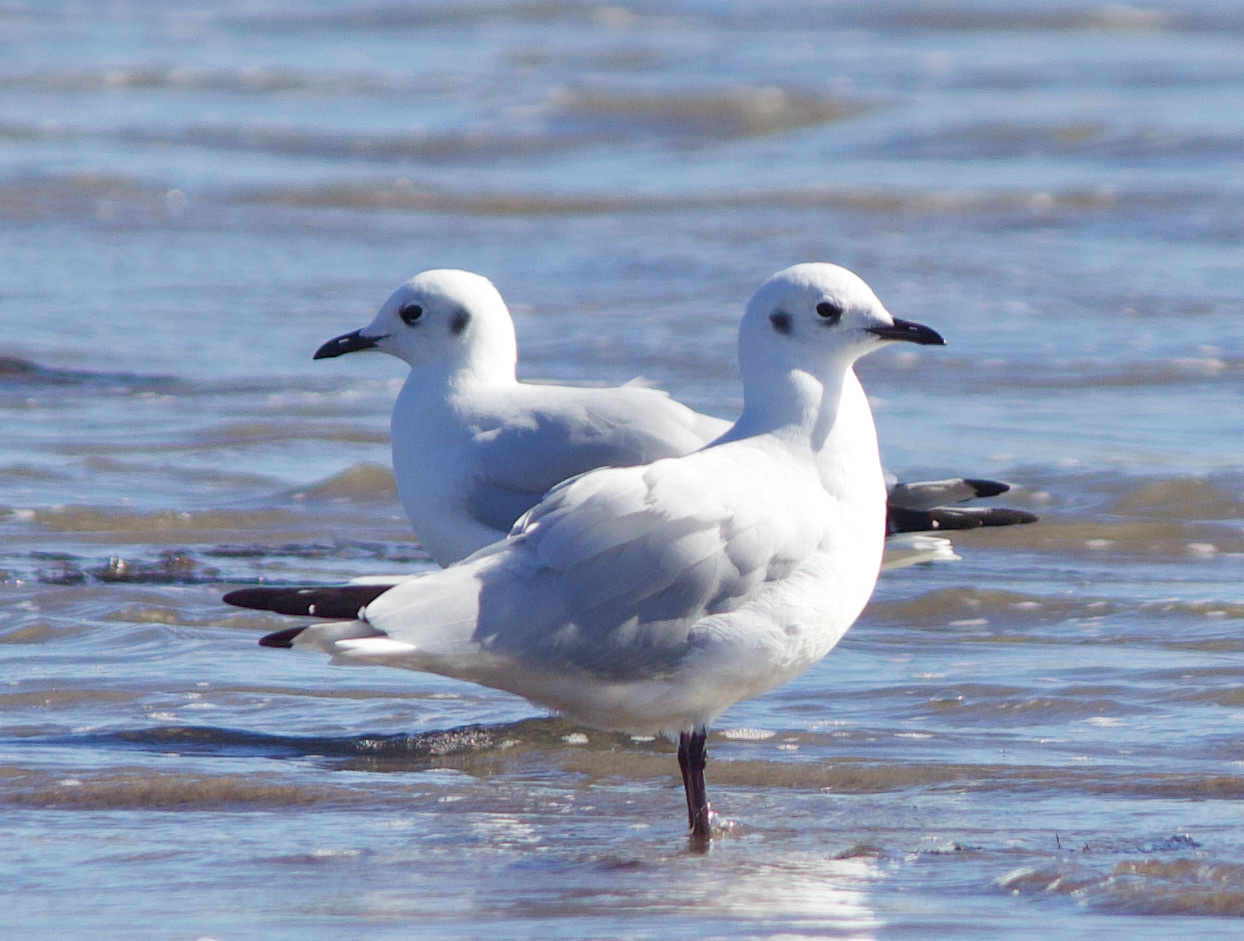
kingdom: Animalia
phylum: Chordata
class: Aves
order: Charadriiformes
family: Laridae
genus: Chroicocephalus
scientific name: Chroicocephalus serranus
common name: Andean gull
